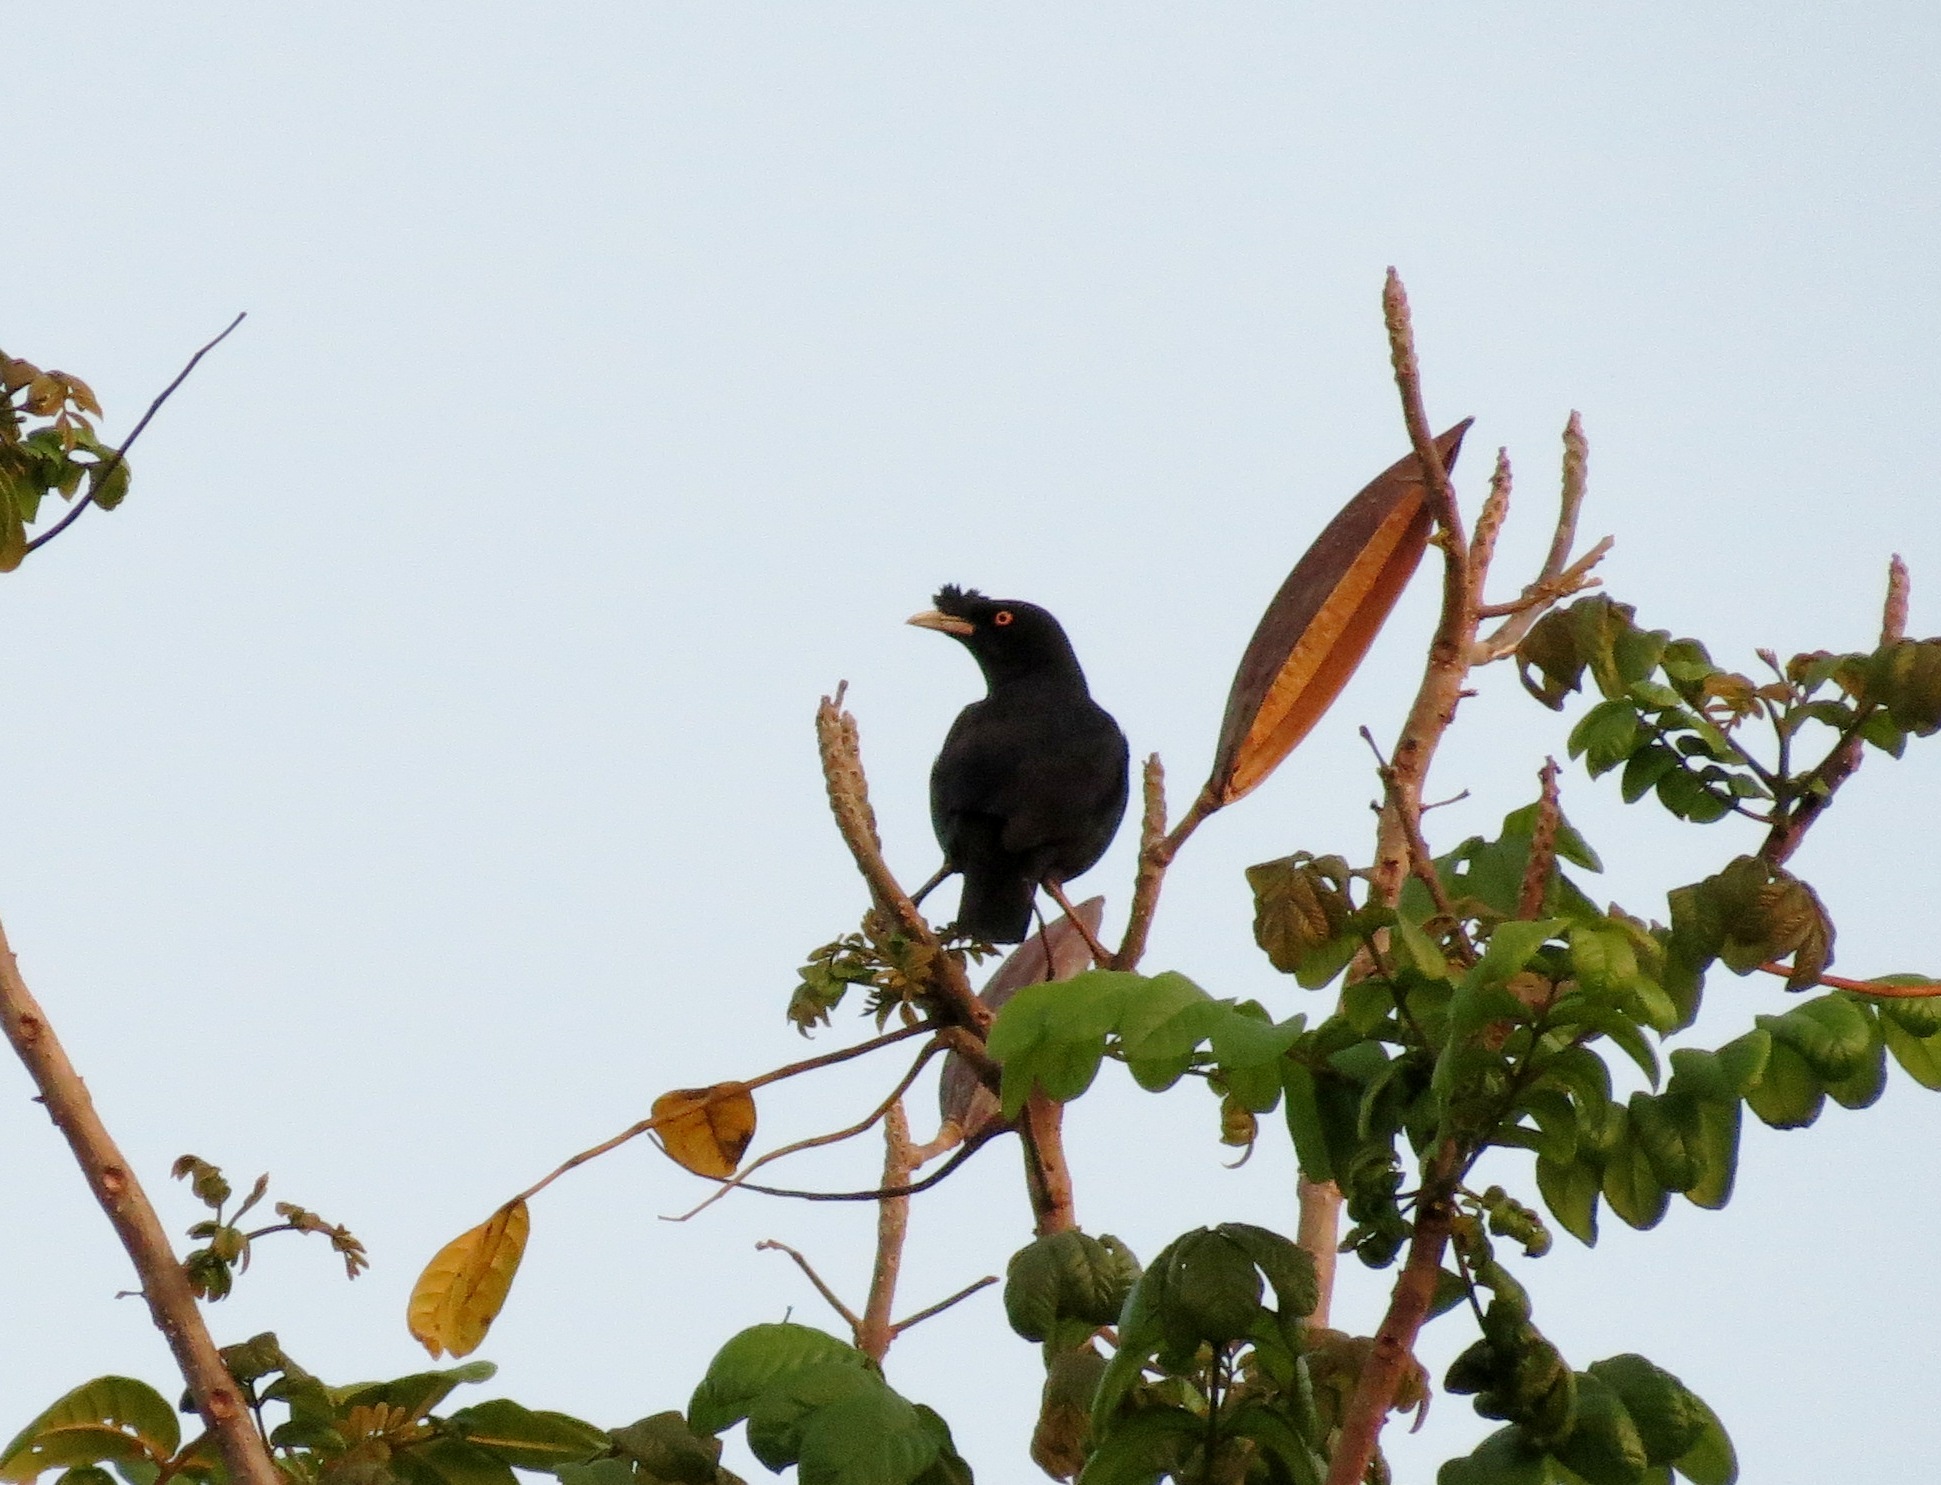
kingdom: Animalia
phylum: Chordata
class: Aves
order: Passeriformes
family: Sturnidae
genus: Acridotheres
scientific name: Acridotheres cristatellus
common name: Crested myna
